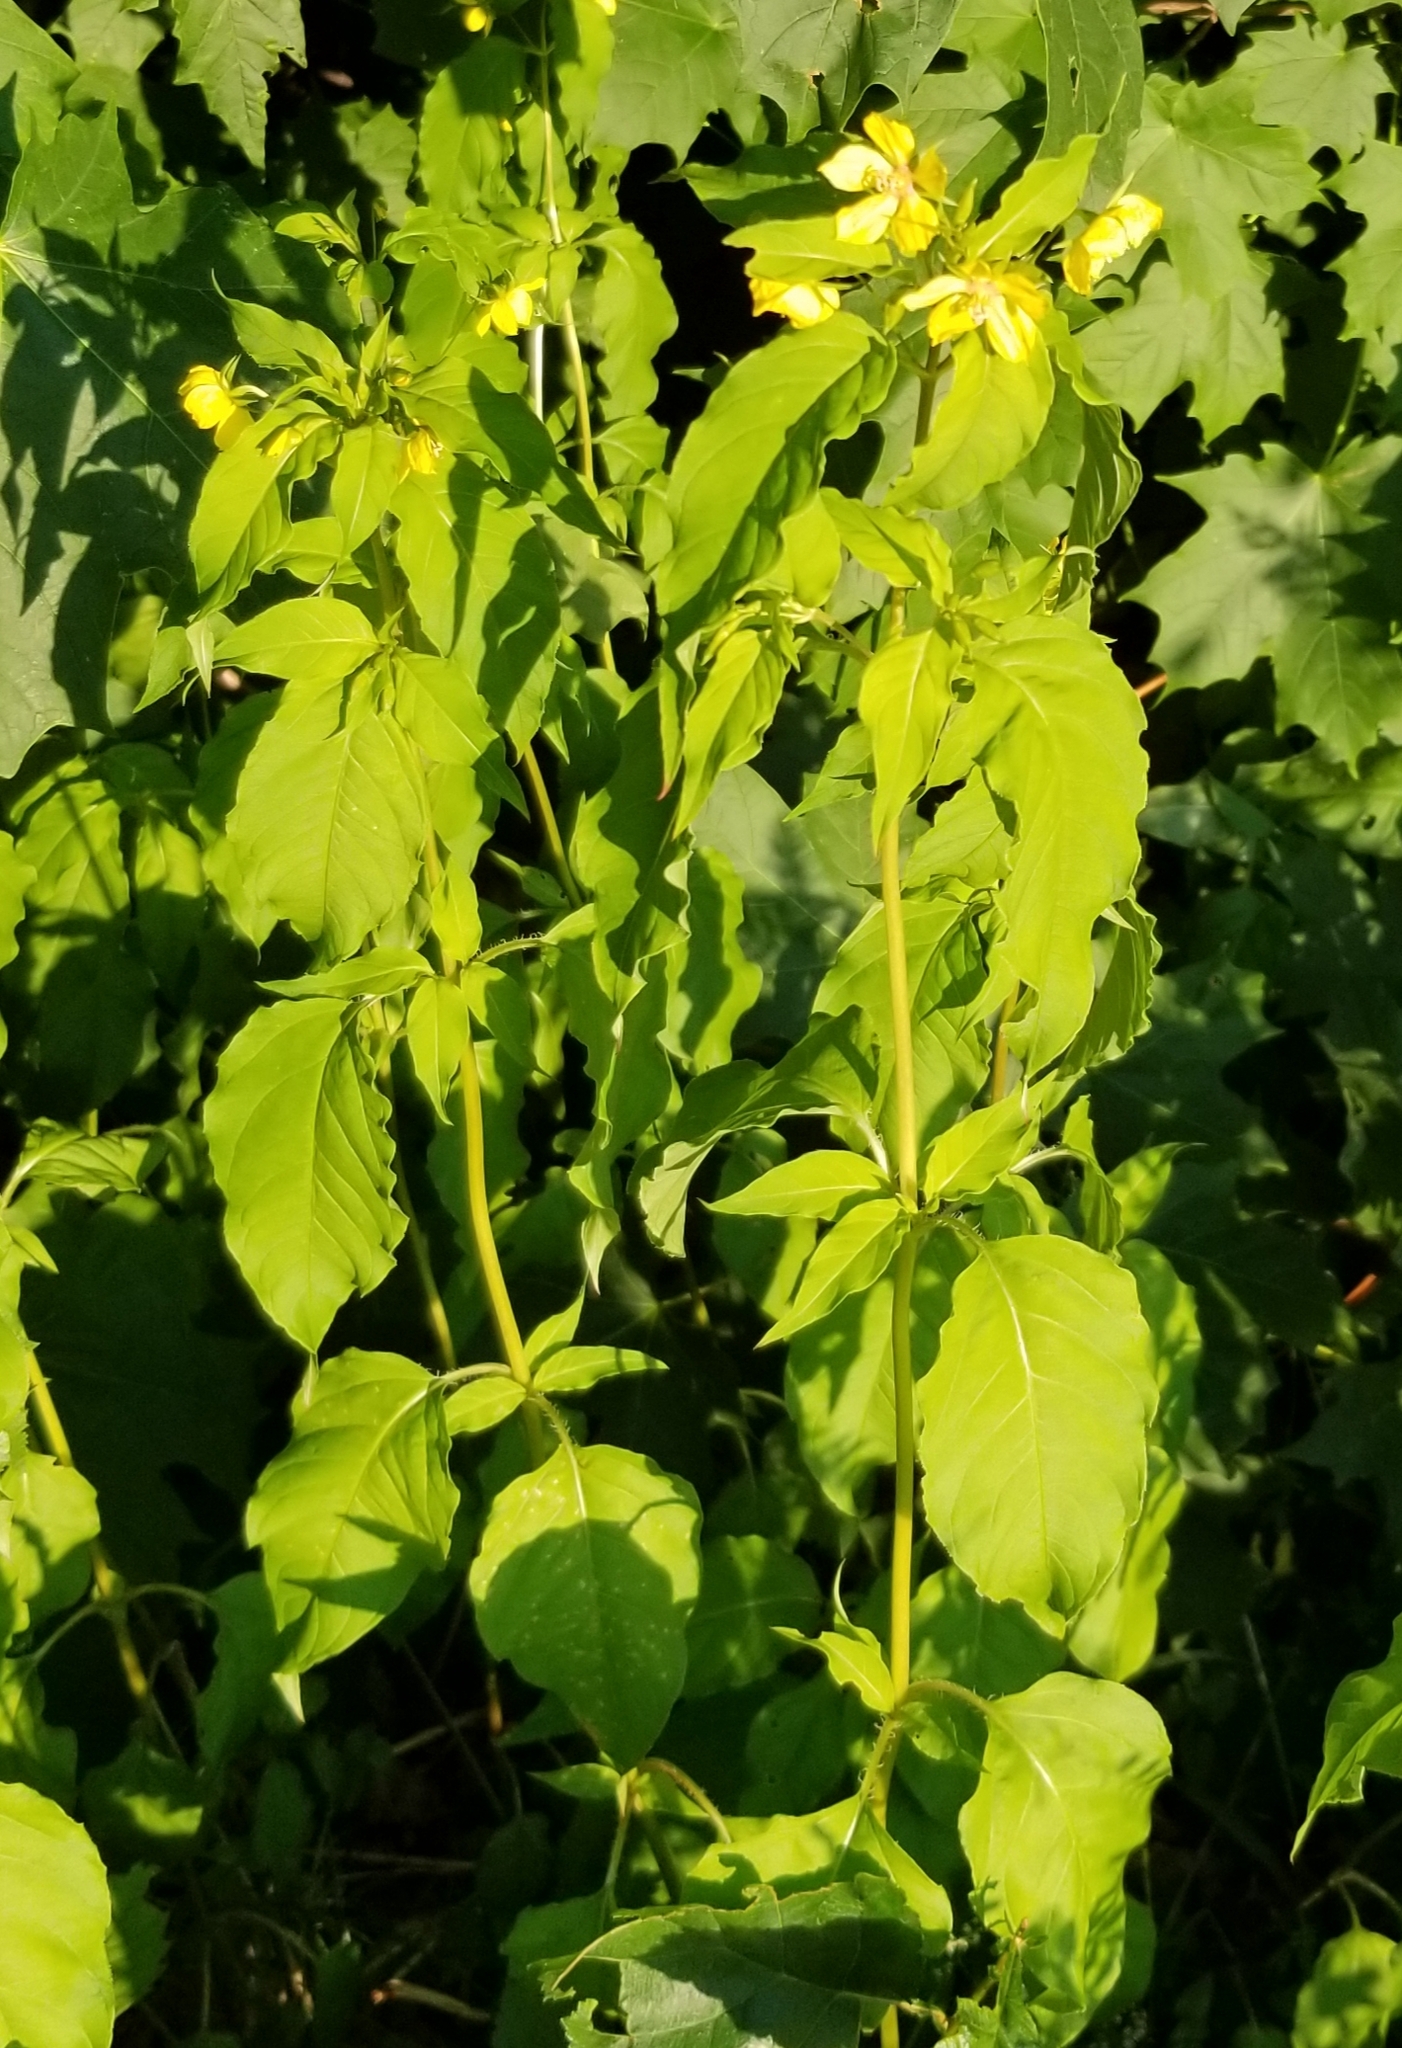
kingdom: Plantae
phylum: Tracheophyta
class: Magnoliopsida
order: Ericales
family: Primulaceae
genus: Lysimachia
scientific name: Lysimachia ciliata
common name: Fringed loosestrife
